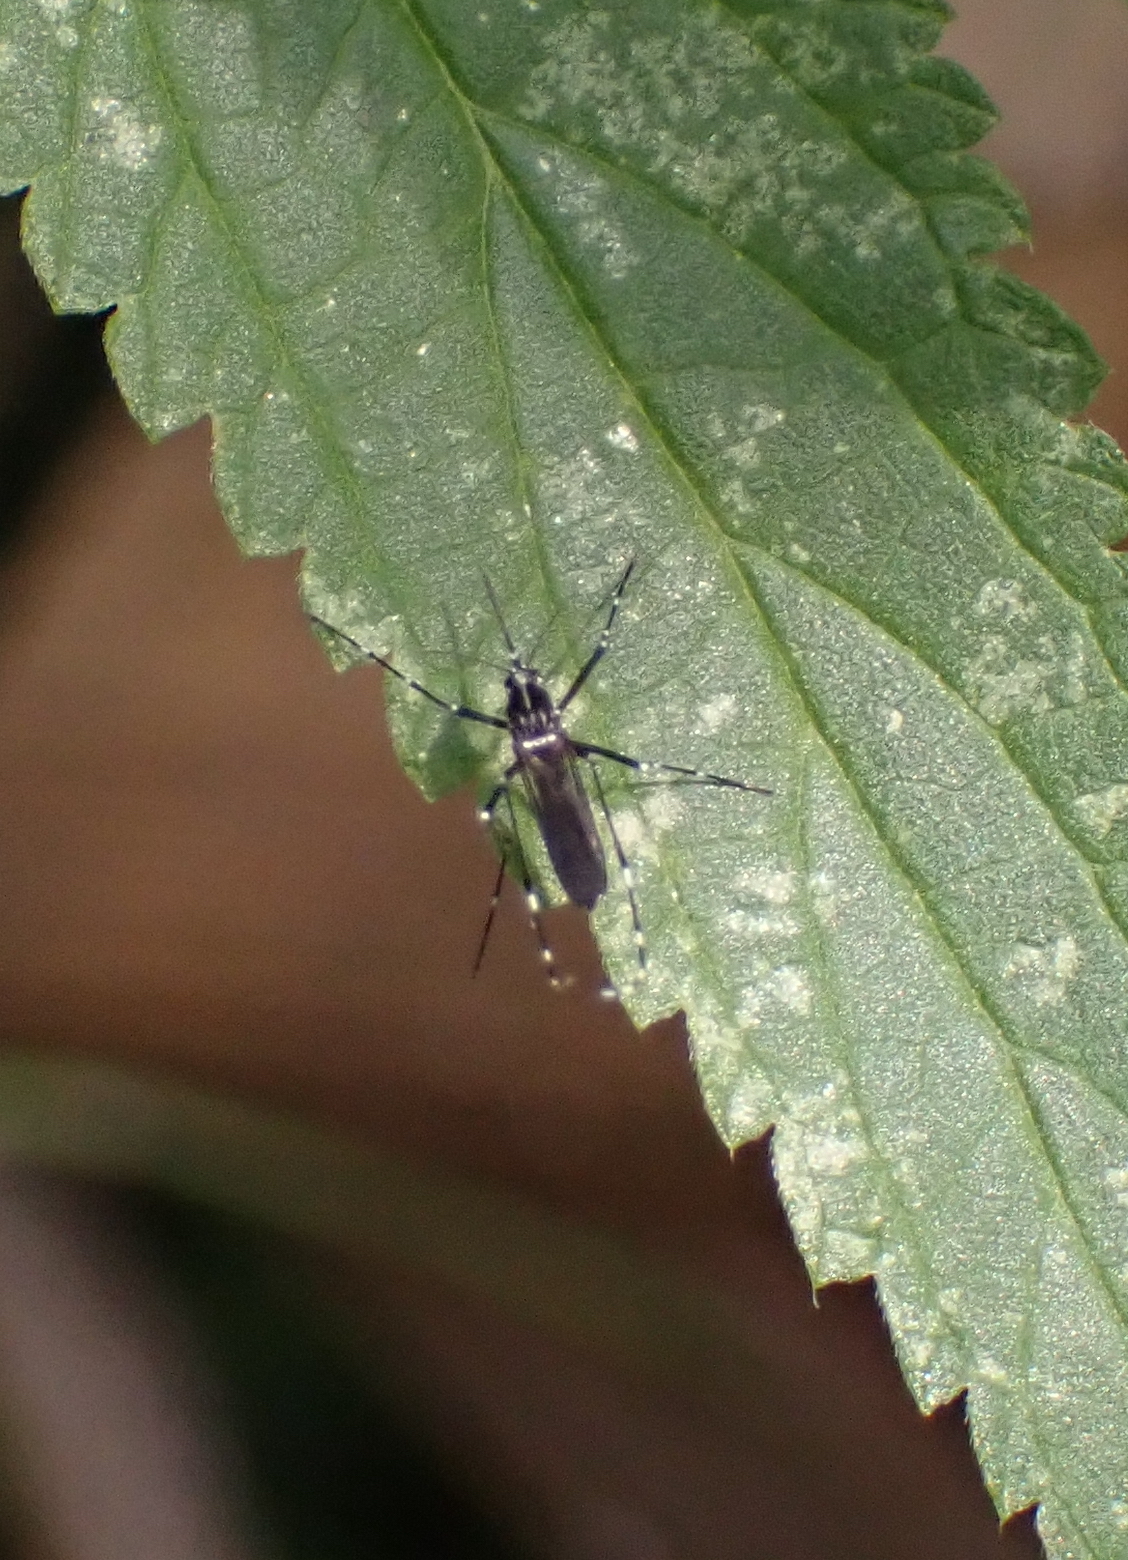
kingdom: Animalia
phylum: Arthropoda
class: Insecta
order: Diptera
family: Culicidae
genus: Aedes
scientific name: Aedes albopictus
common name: Tiger mosquito
